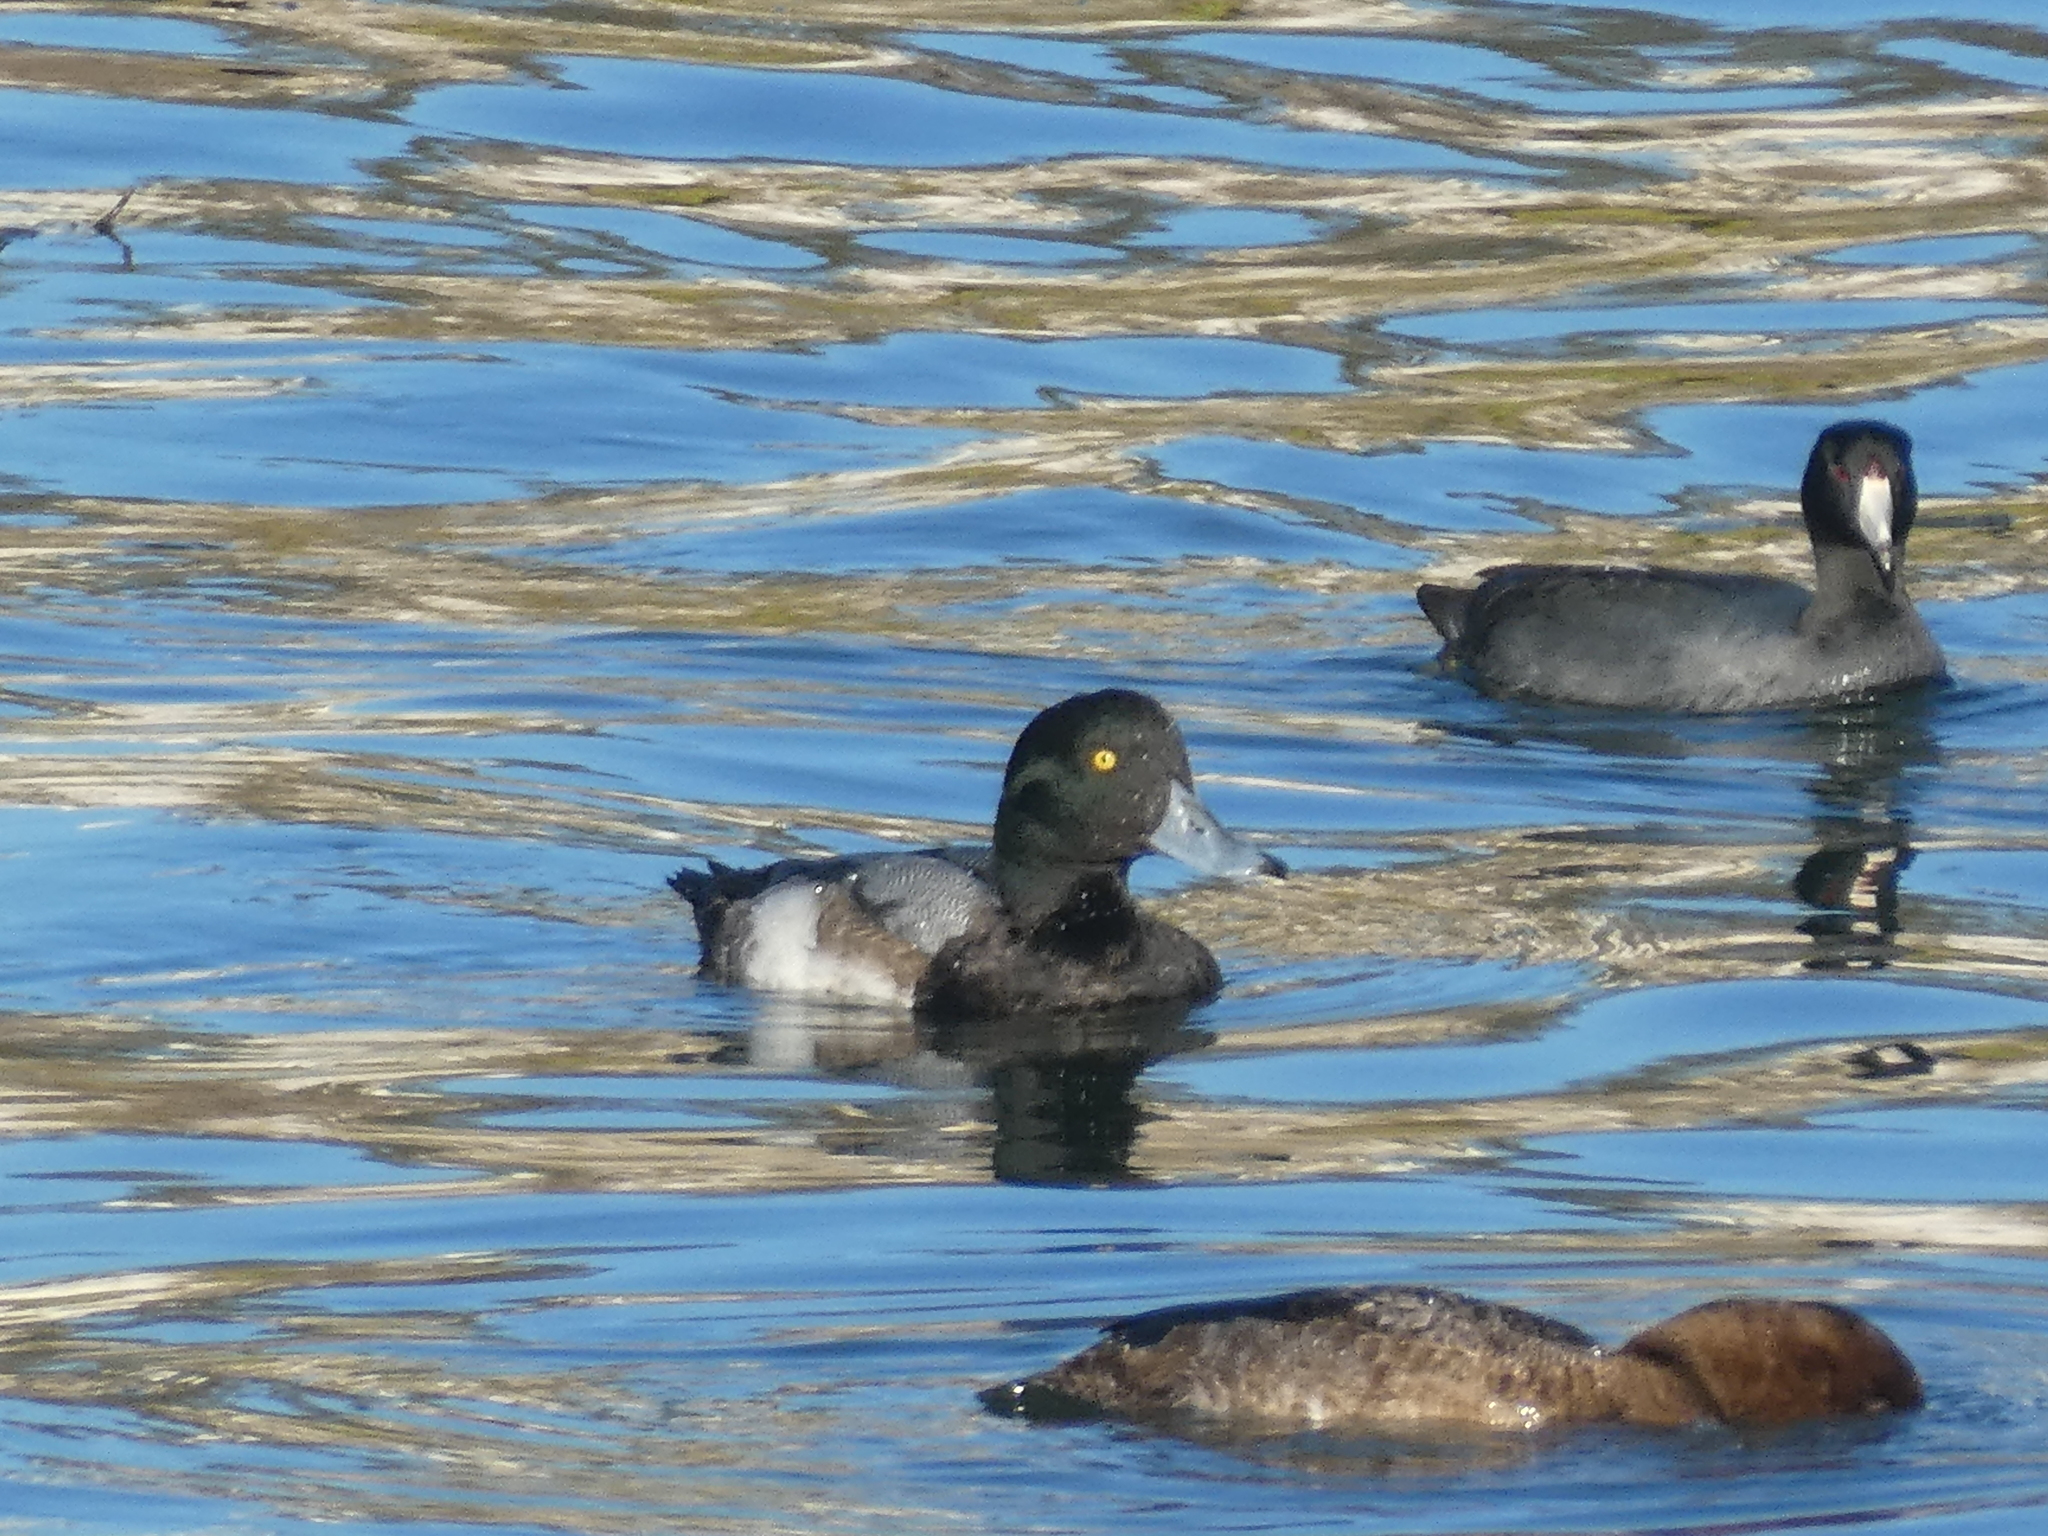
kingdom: Animalia
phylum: Chordata
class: Aves
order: Anseriformes
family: Anatidae
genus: Aythya
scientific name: Aythya marila
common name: Greater scaup
